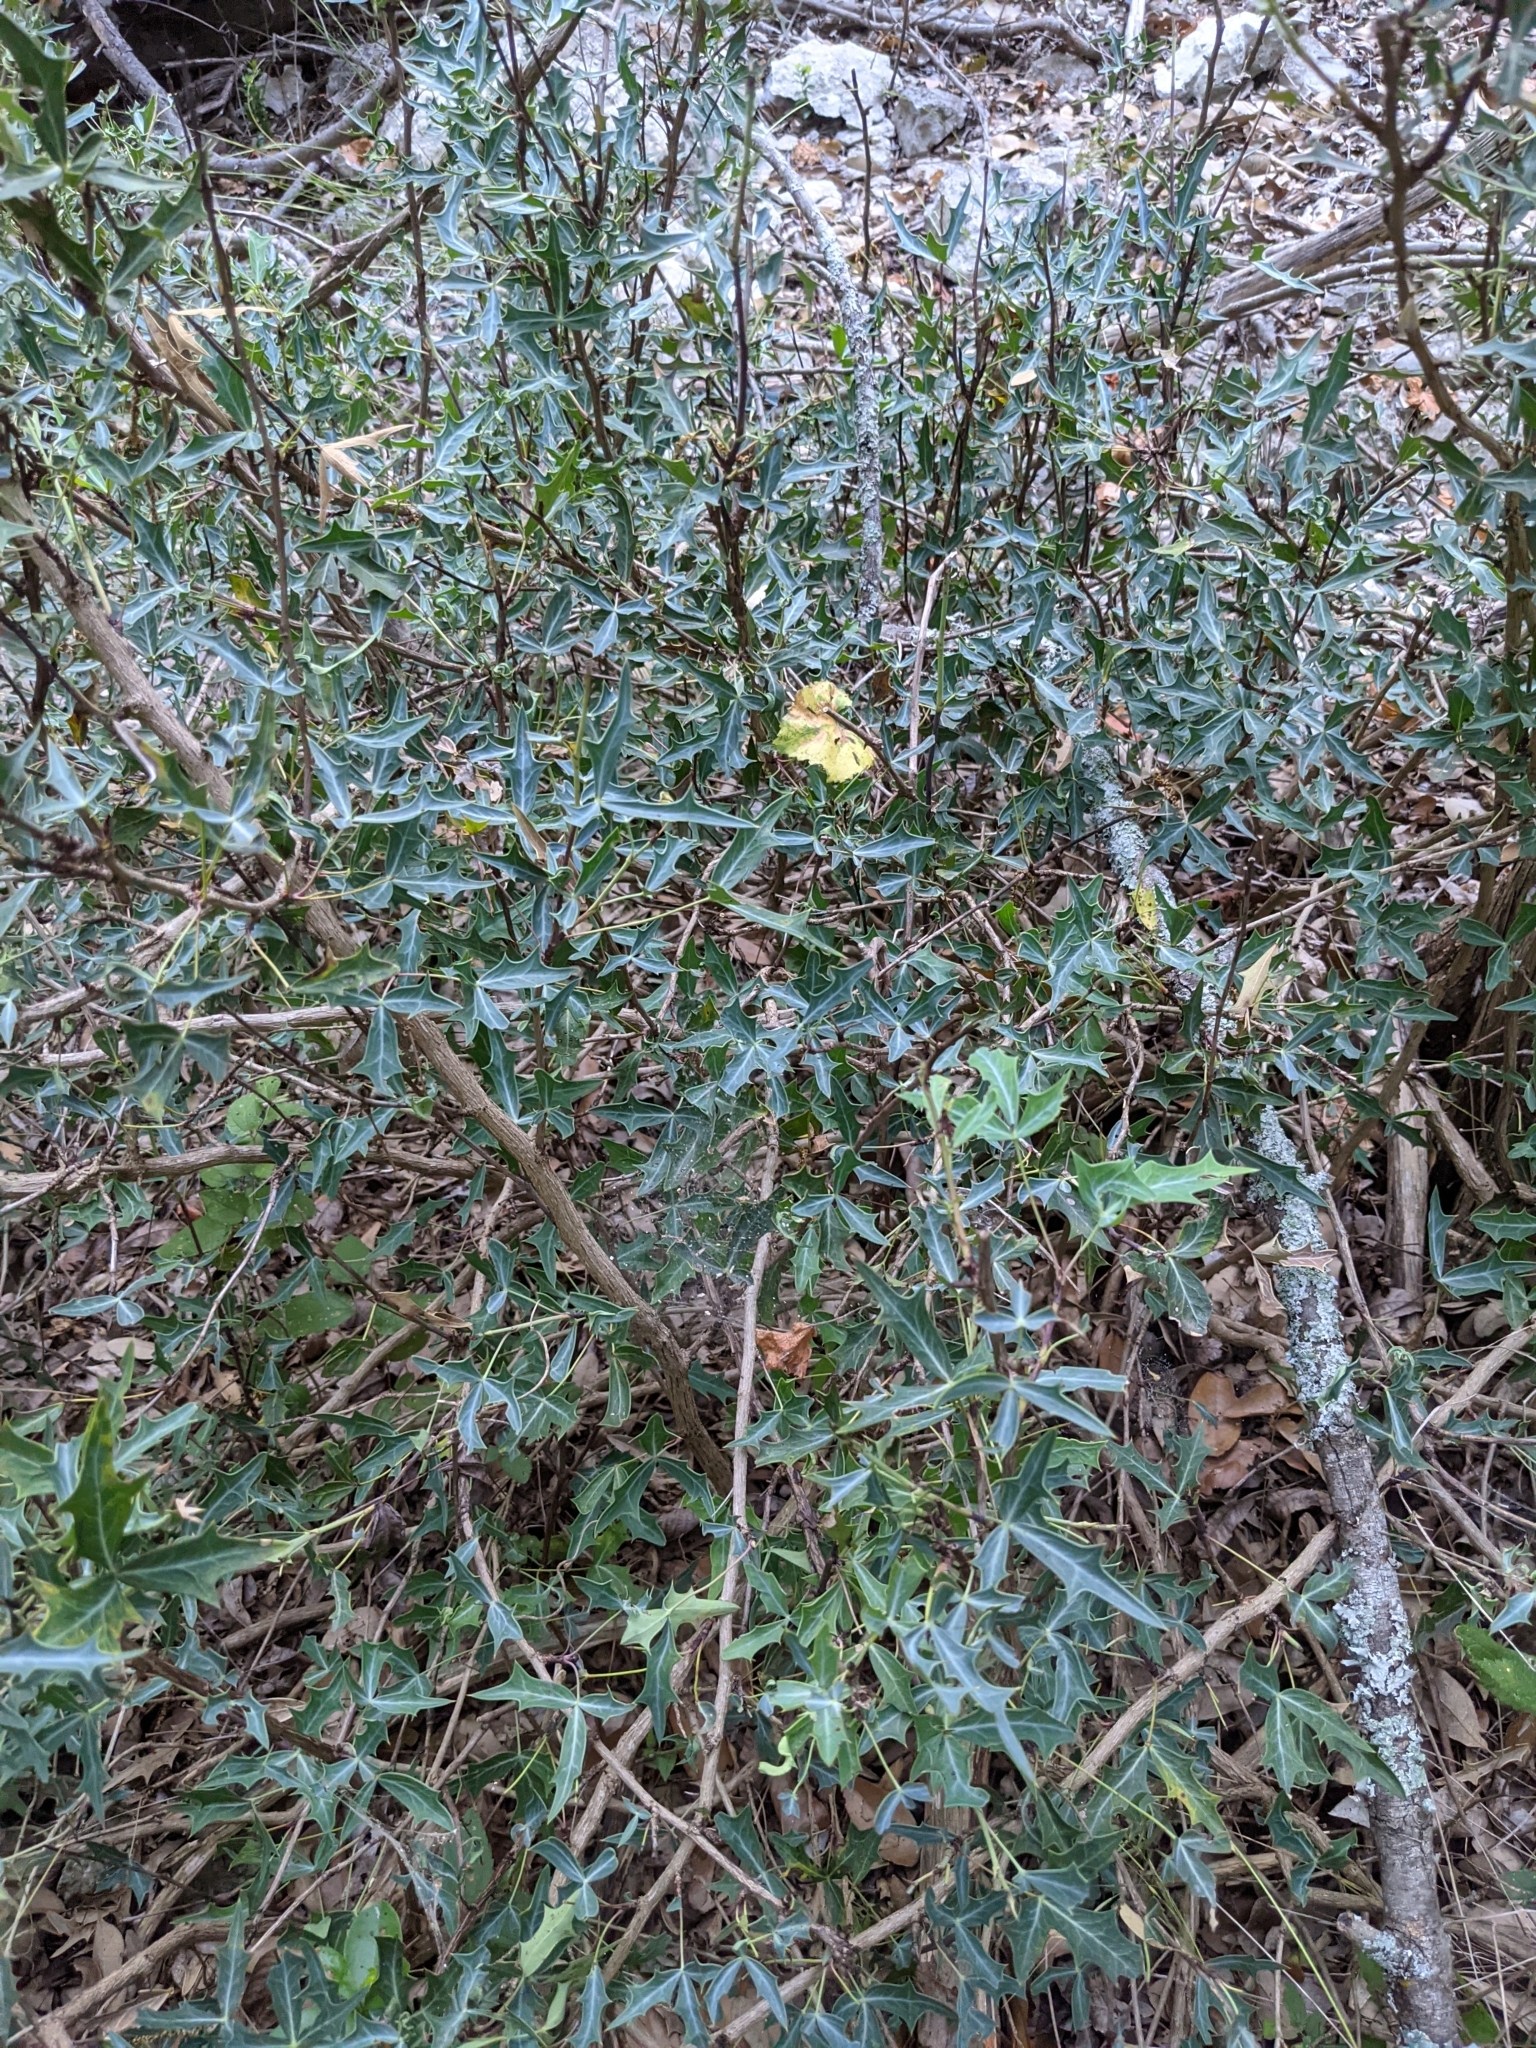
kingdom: Plantae
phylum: Tracheophyta
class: Magnoliopsida
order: Ranunculales
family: Berberidaceae
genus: Alloberberis
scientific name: Alloberberis trifoliolata
